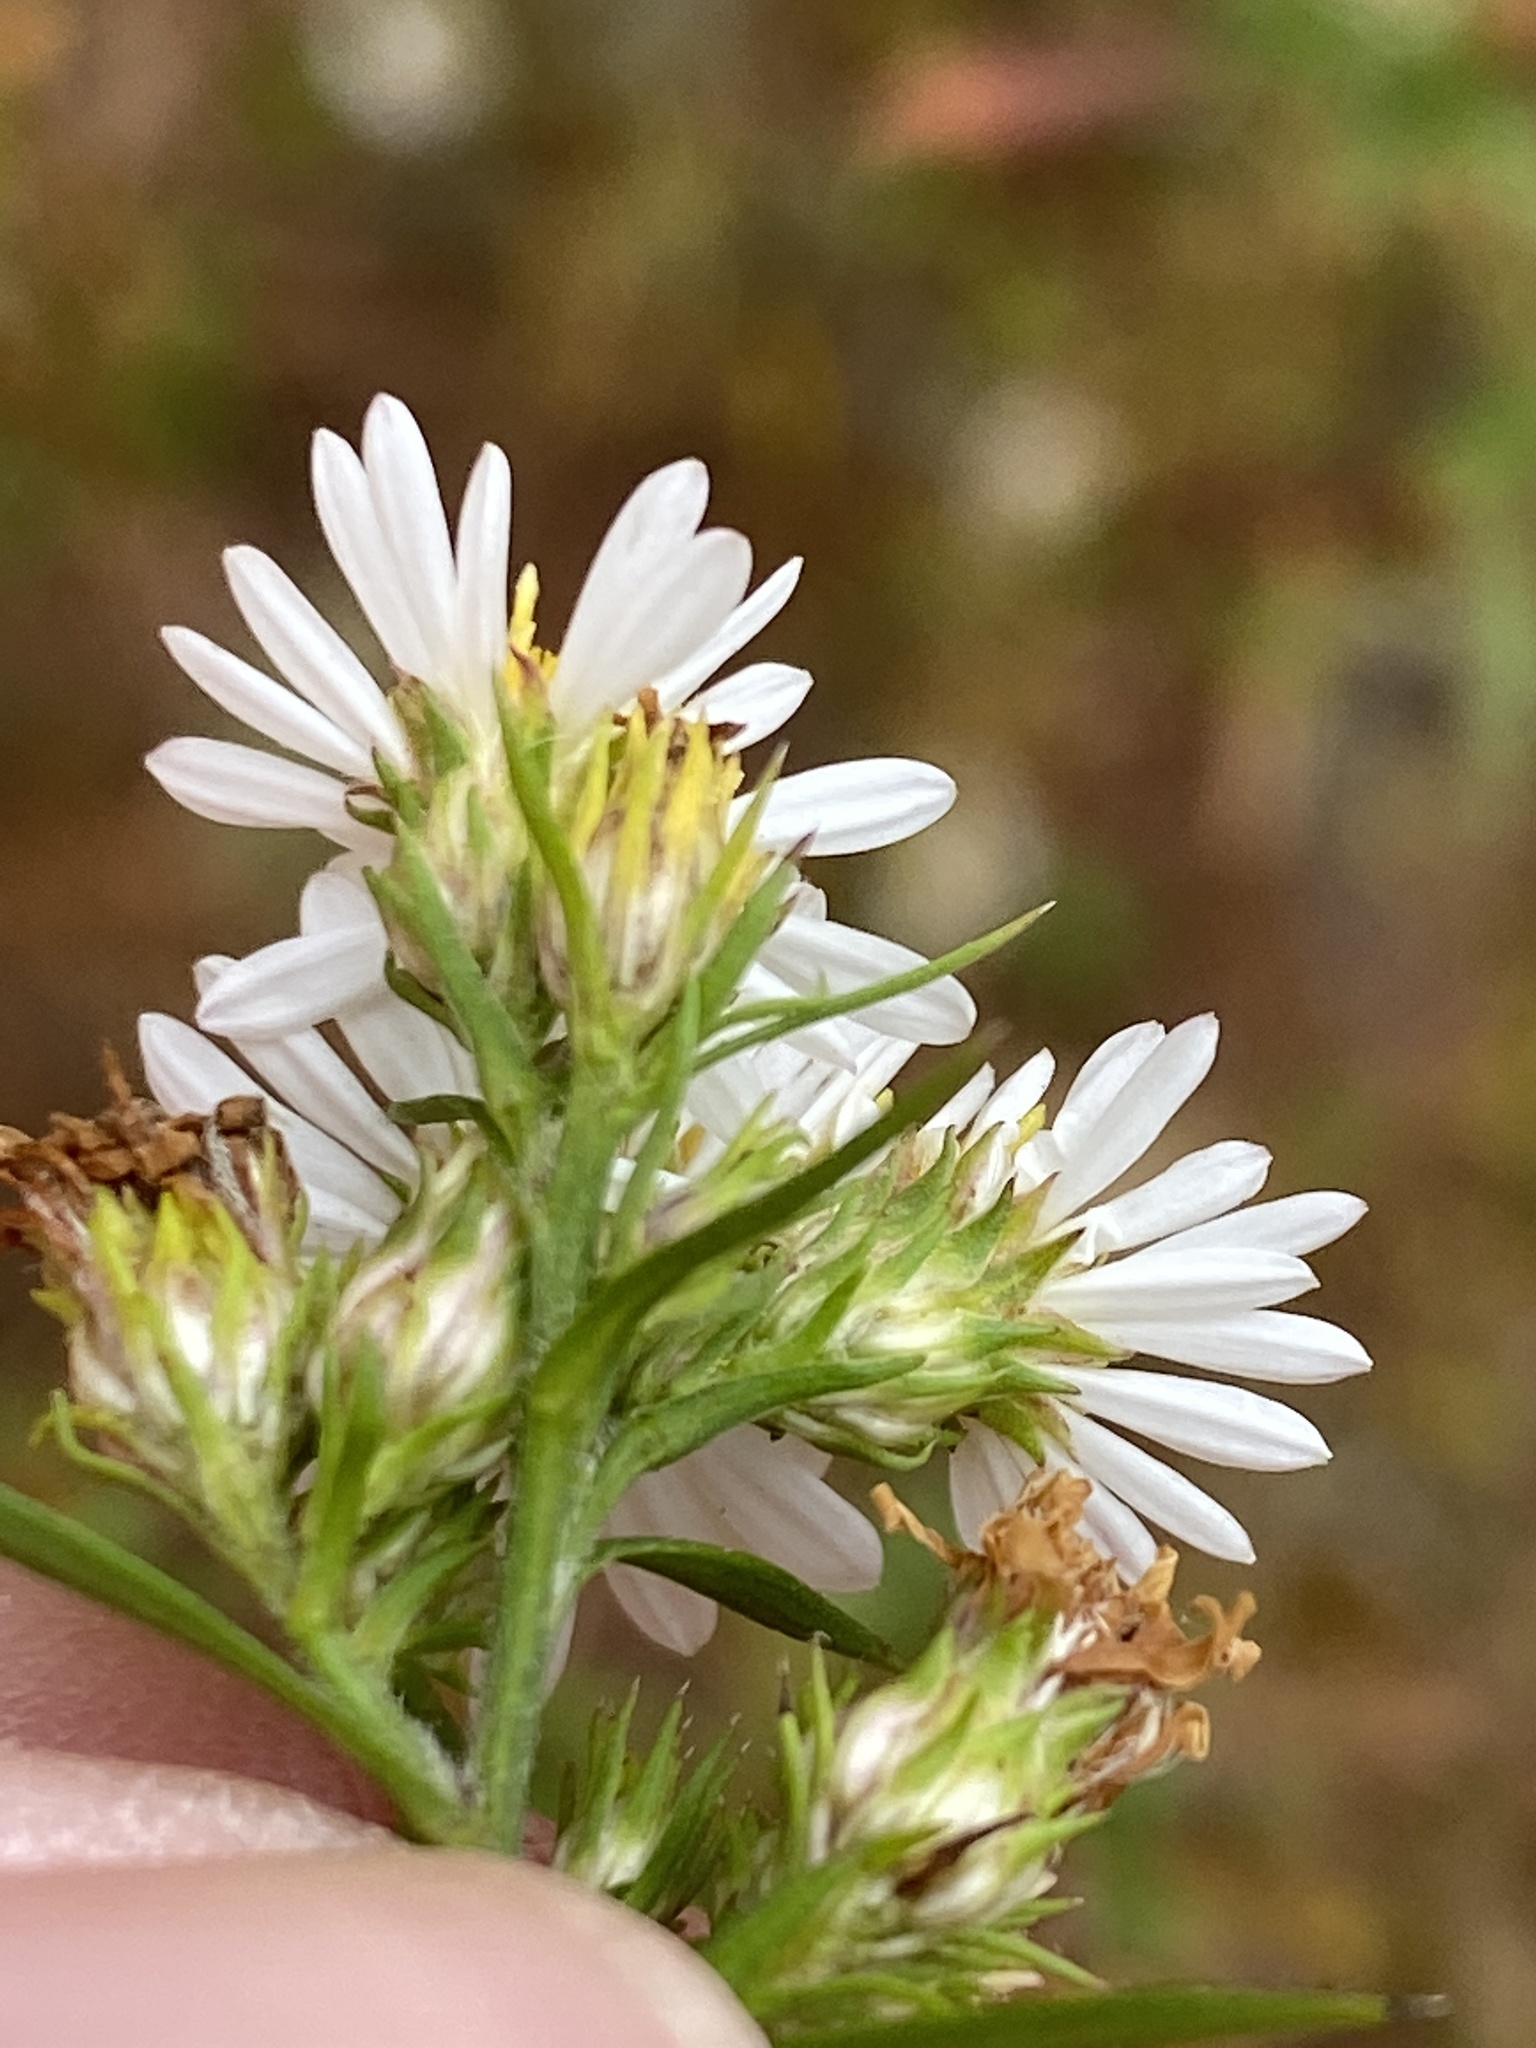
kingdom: Plantae
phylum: Tracheophyta
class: Magnoliopsida
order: Asterales
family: Asteraceae
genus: Symphyotrichum
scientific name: Symphyotrichum pilosum
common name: Awl aster
